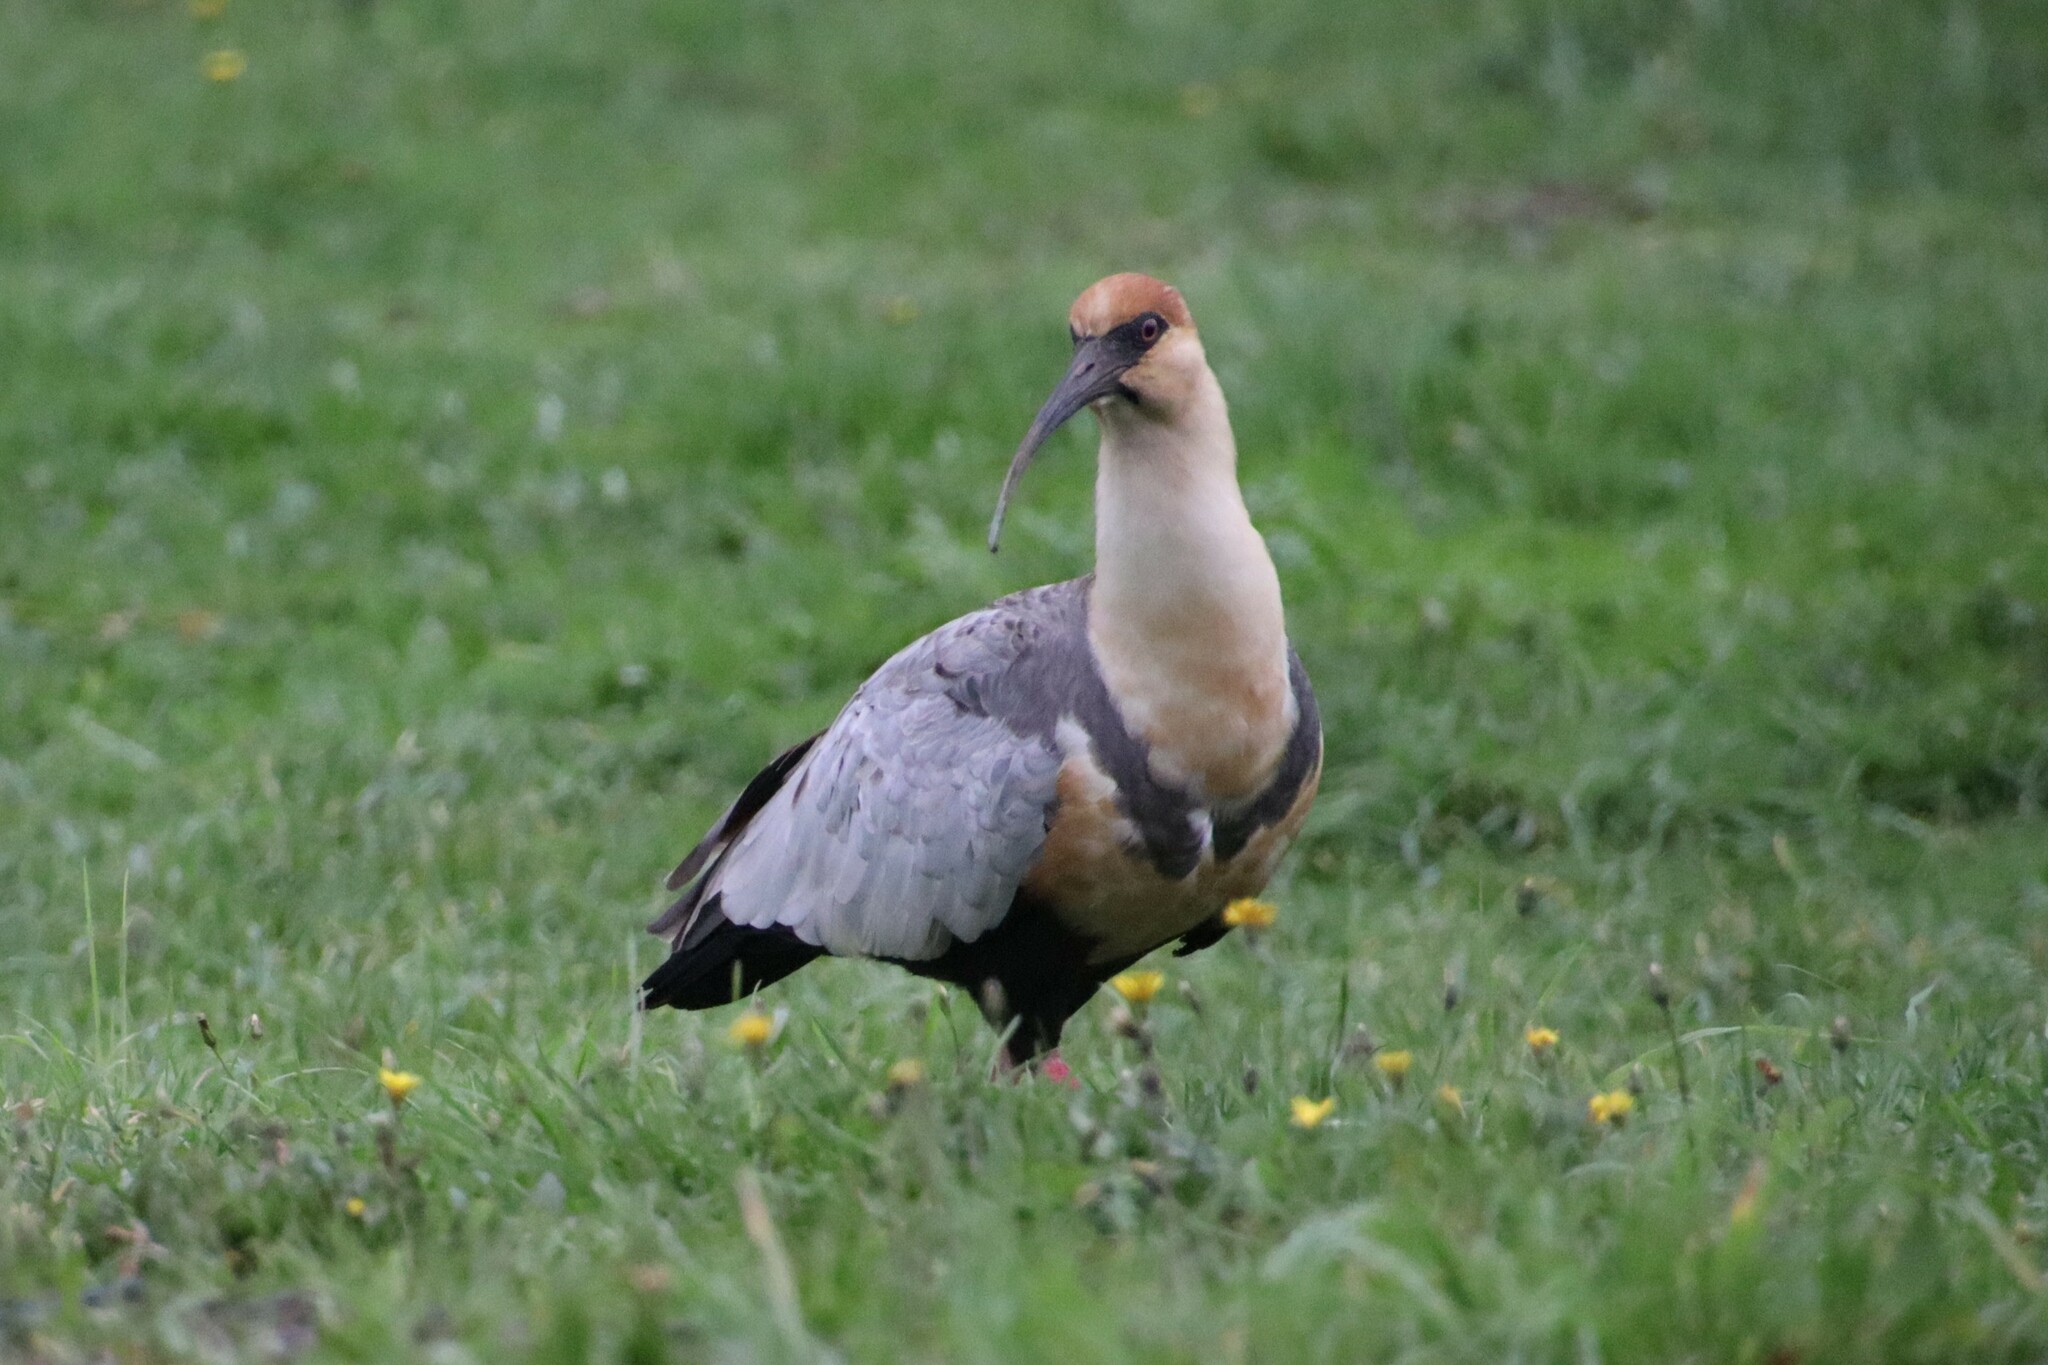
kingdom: Animalia
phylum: Chordata
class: Aves
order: Pelecaniformes
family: Threskiornithidae
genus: Theristicus
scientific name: Theristicus melanopis
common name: Black-faced ibis
